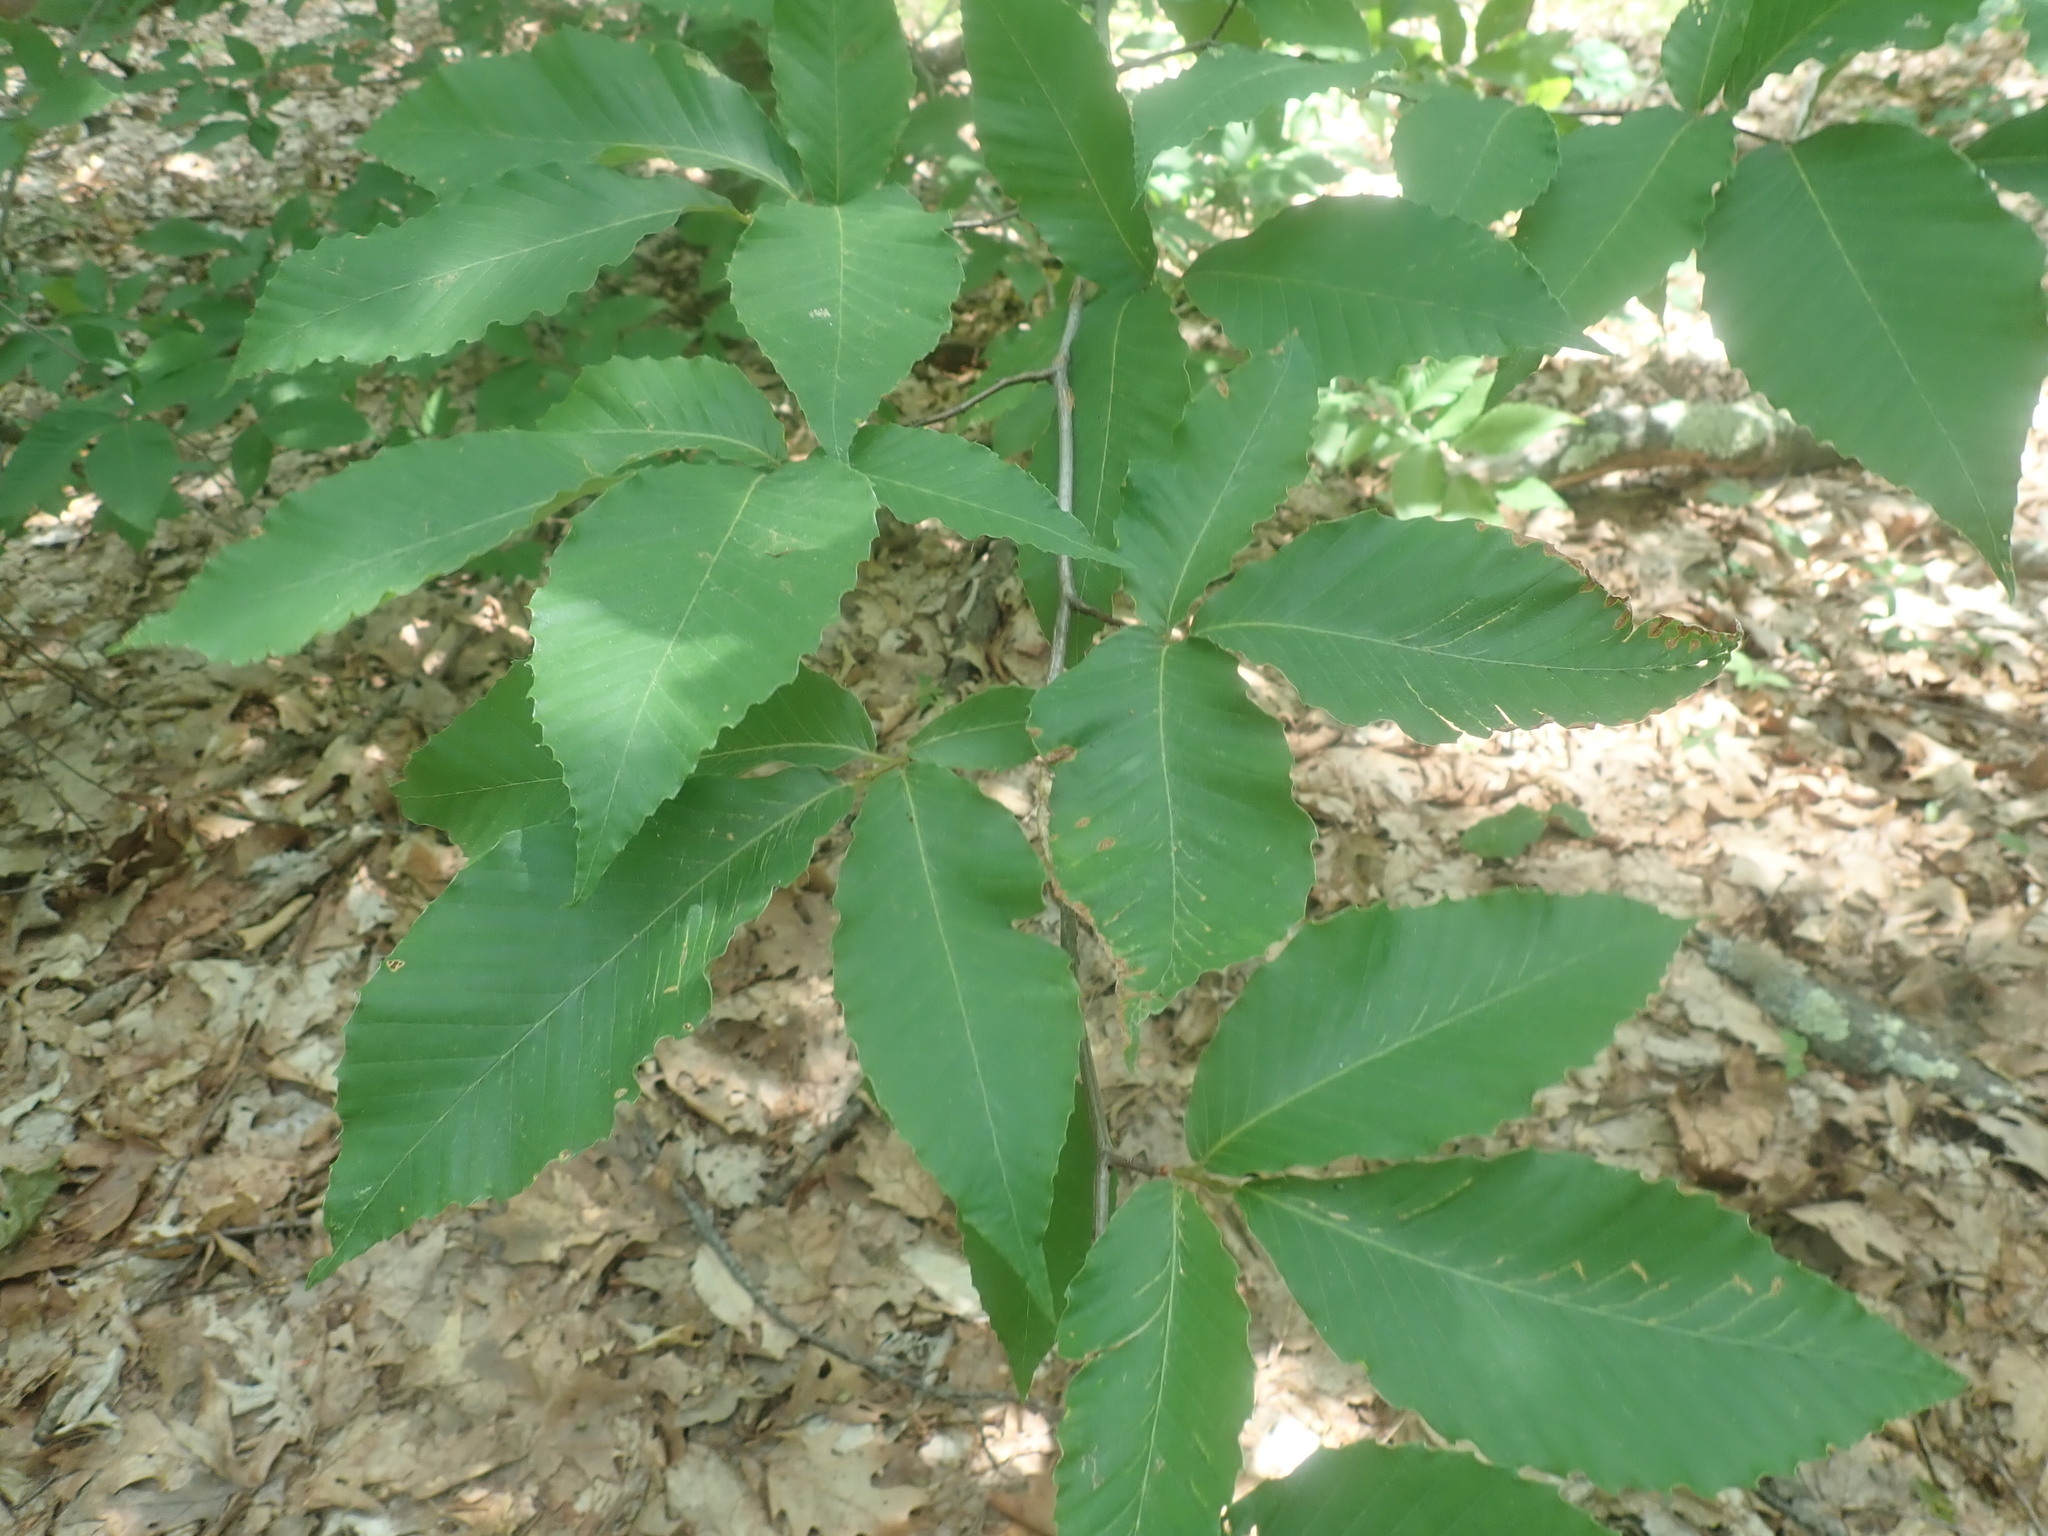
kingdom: Plantae
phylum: Tracheophyta
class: Magnoliopsida
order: Fagales
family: Fagaceae
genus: Fagus
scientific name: Fagus grandifolia
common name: American beech
